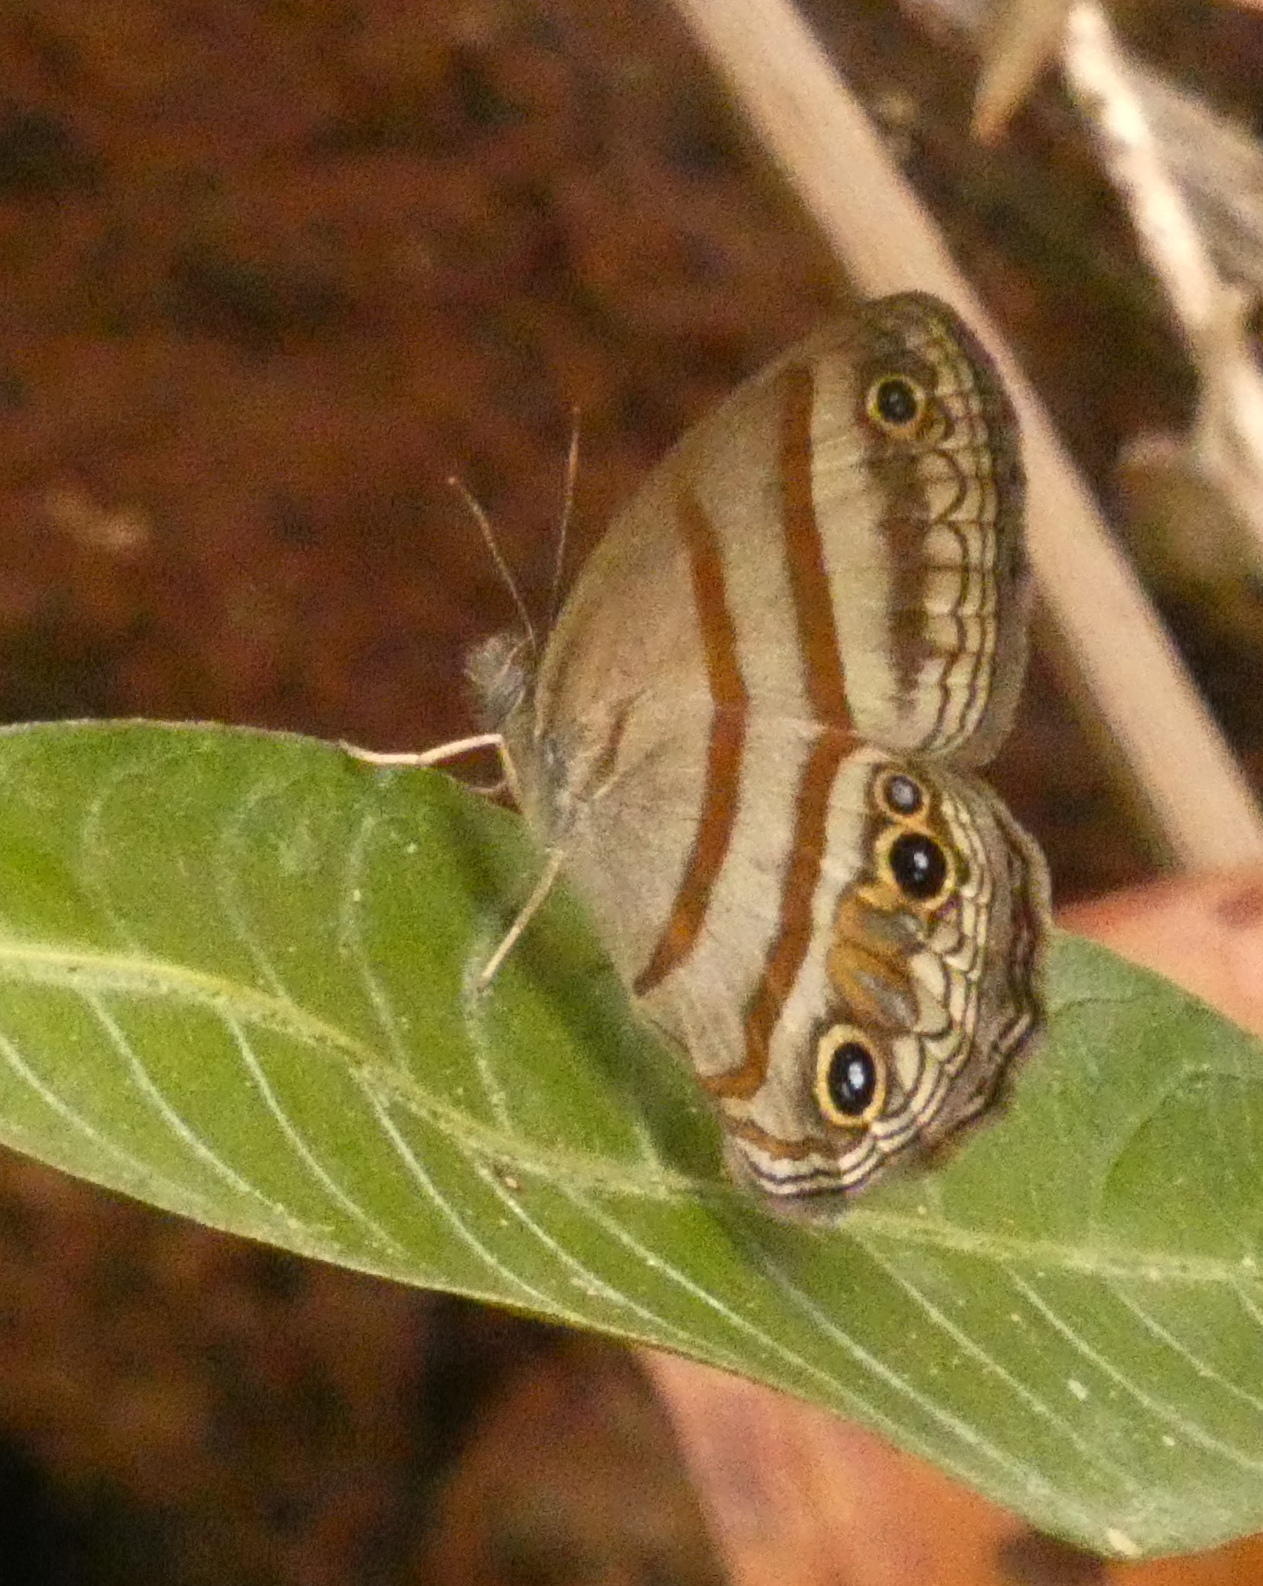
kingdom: Animalia
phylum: Arthropoda
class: Insecta
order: Lepidoptera
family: Nymphalidae
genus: Euptychia
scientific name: Euptychia terrestris
